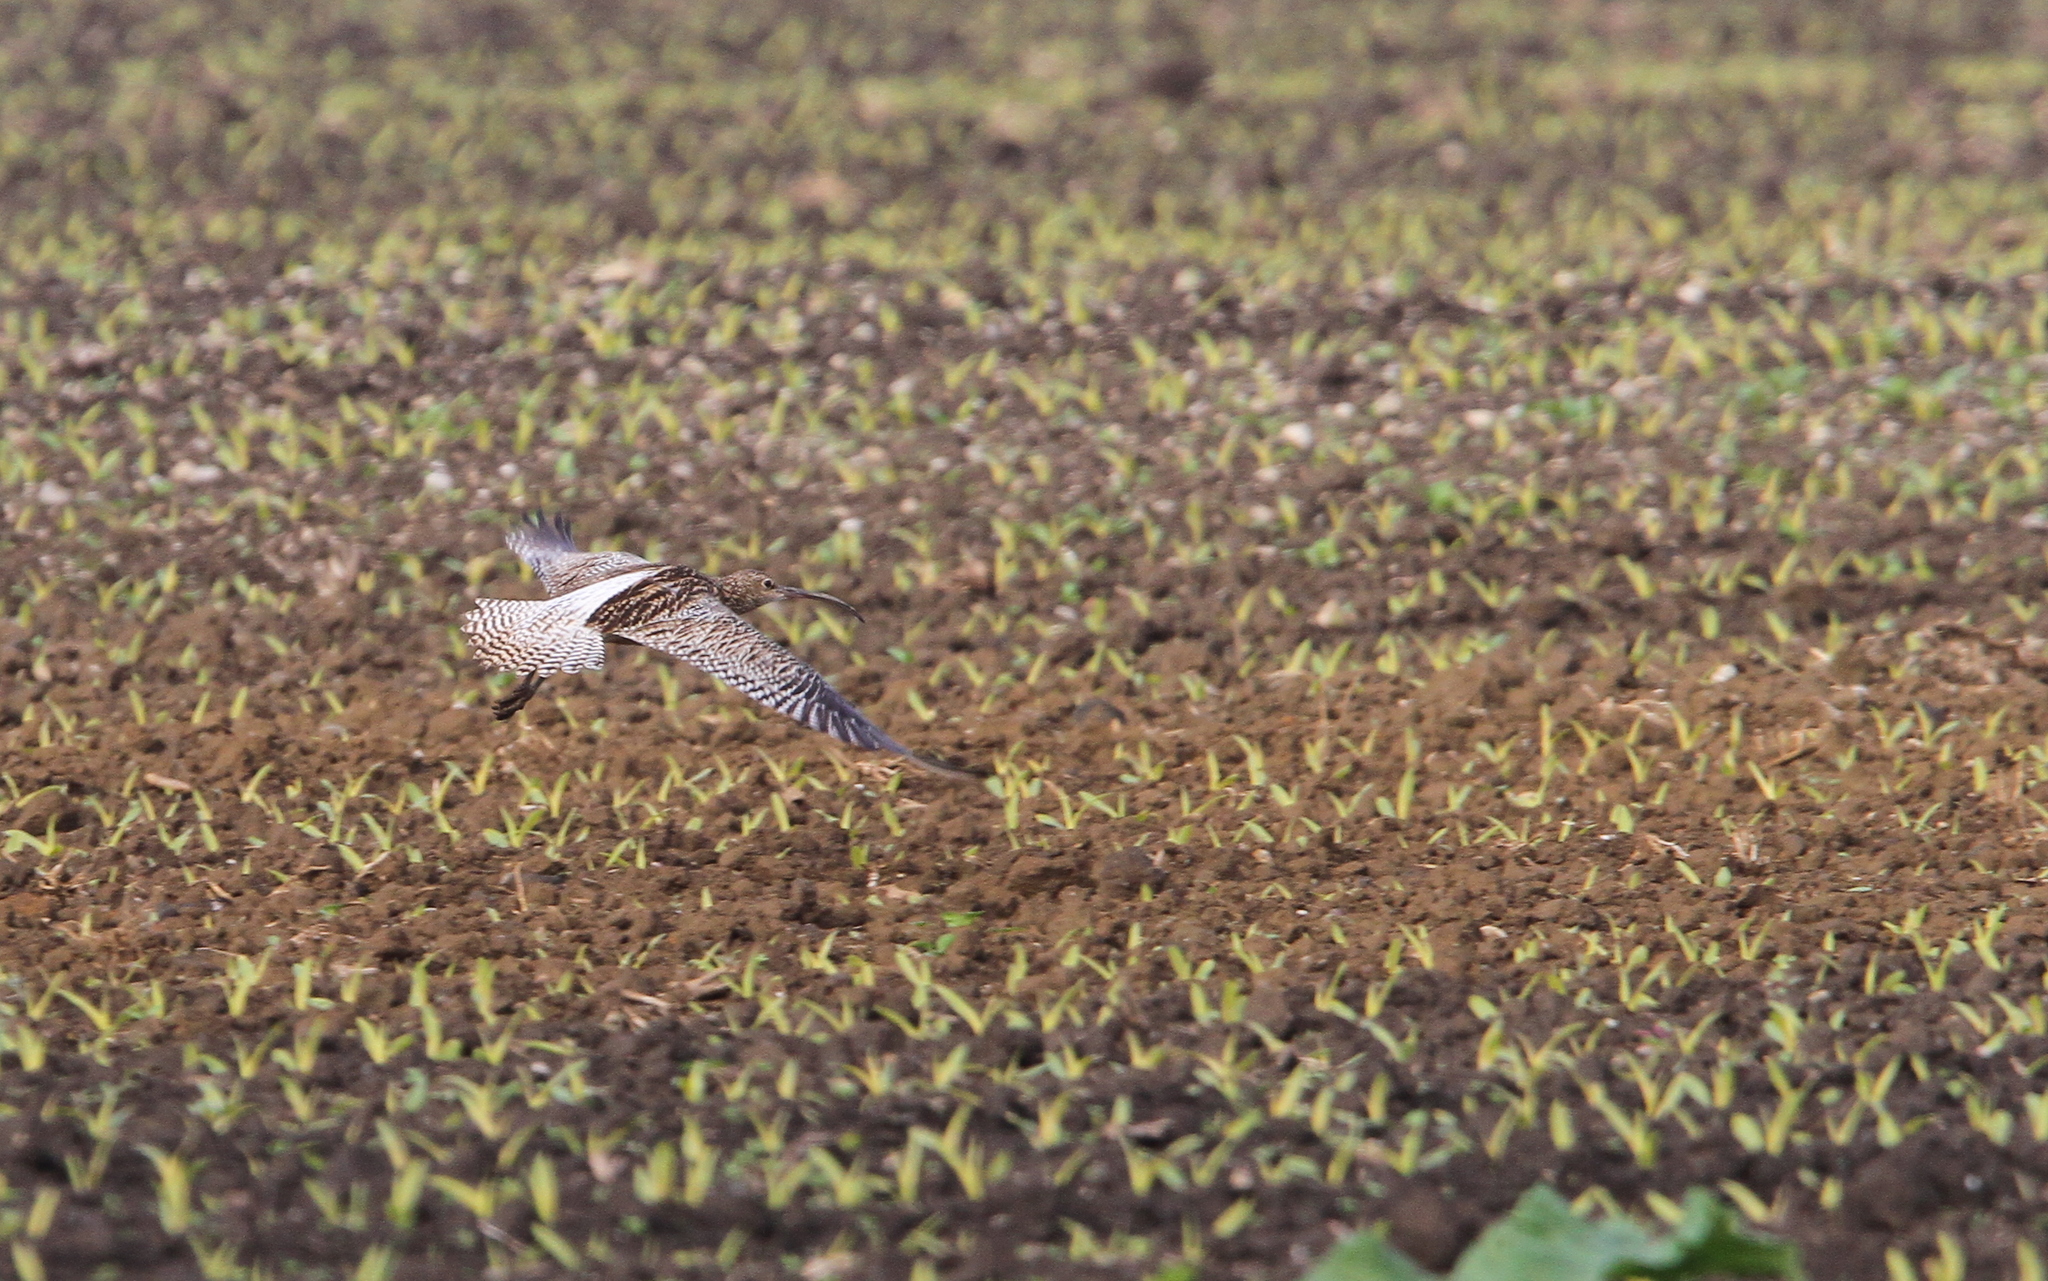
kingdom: Animalia
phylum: Chordata
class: Aves
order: Charadriiformes
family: Scolopacidae
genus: Numenius
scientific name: Numenius arquata
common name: Eurasian curlew
